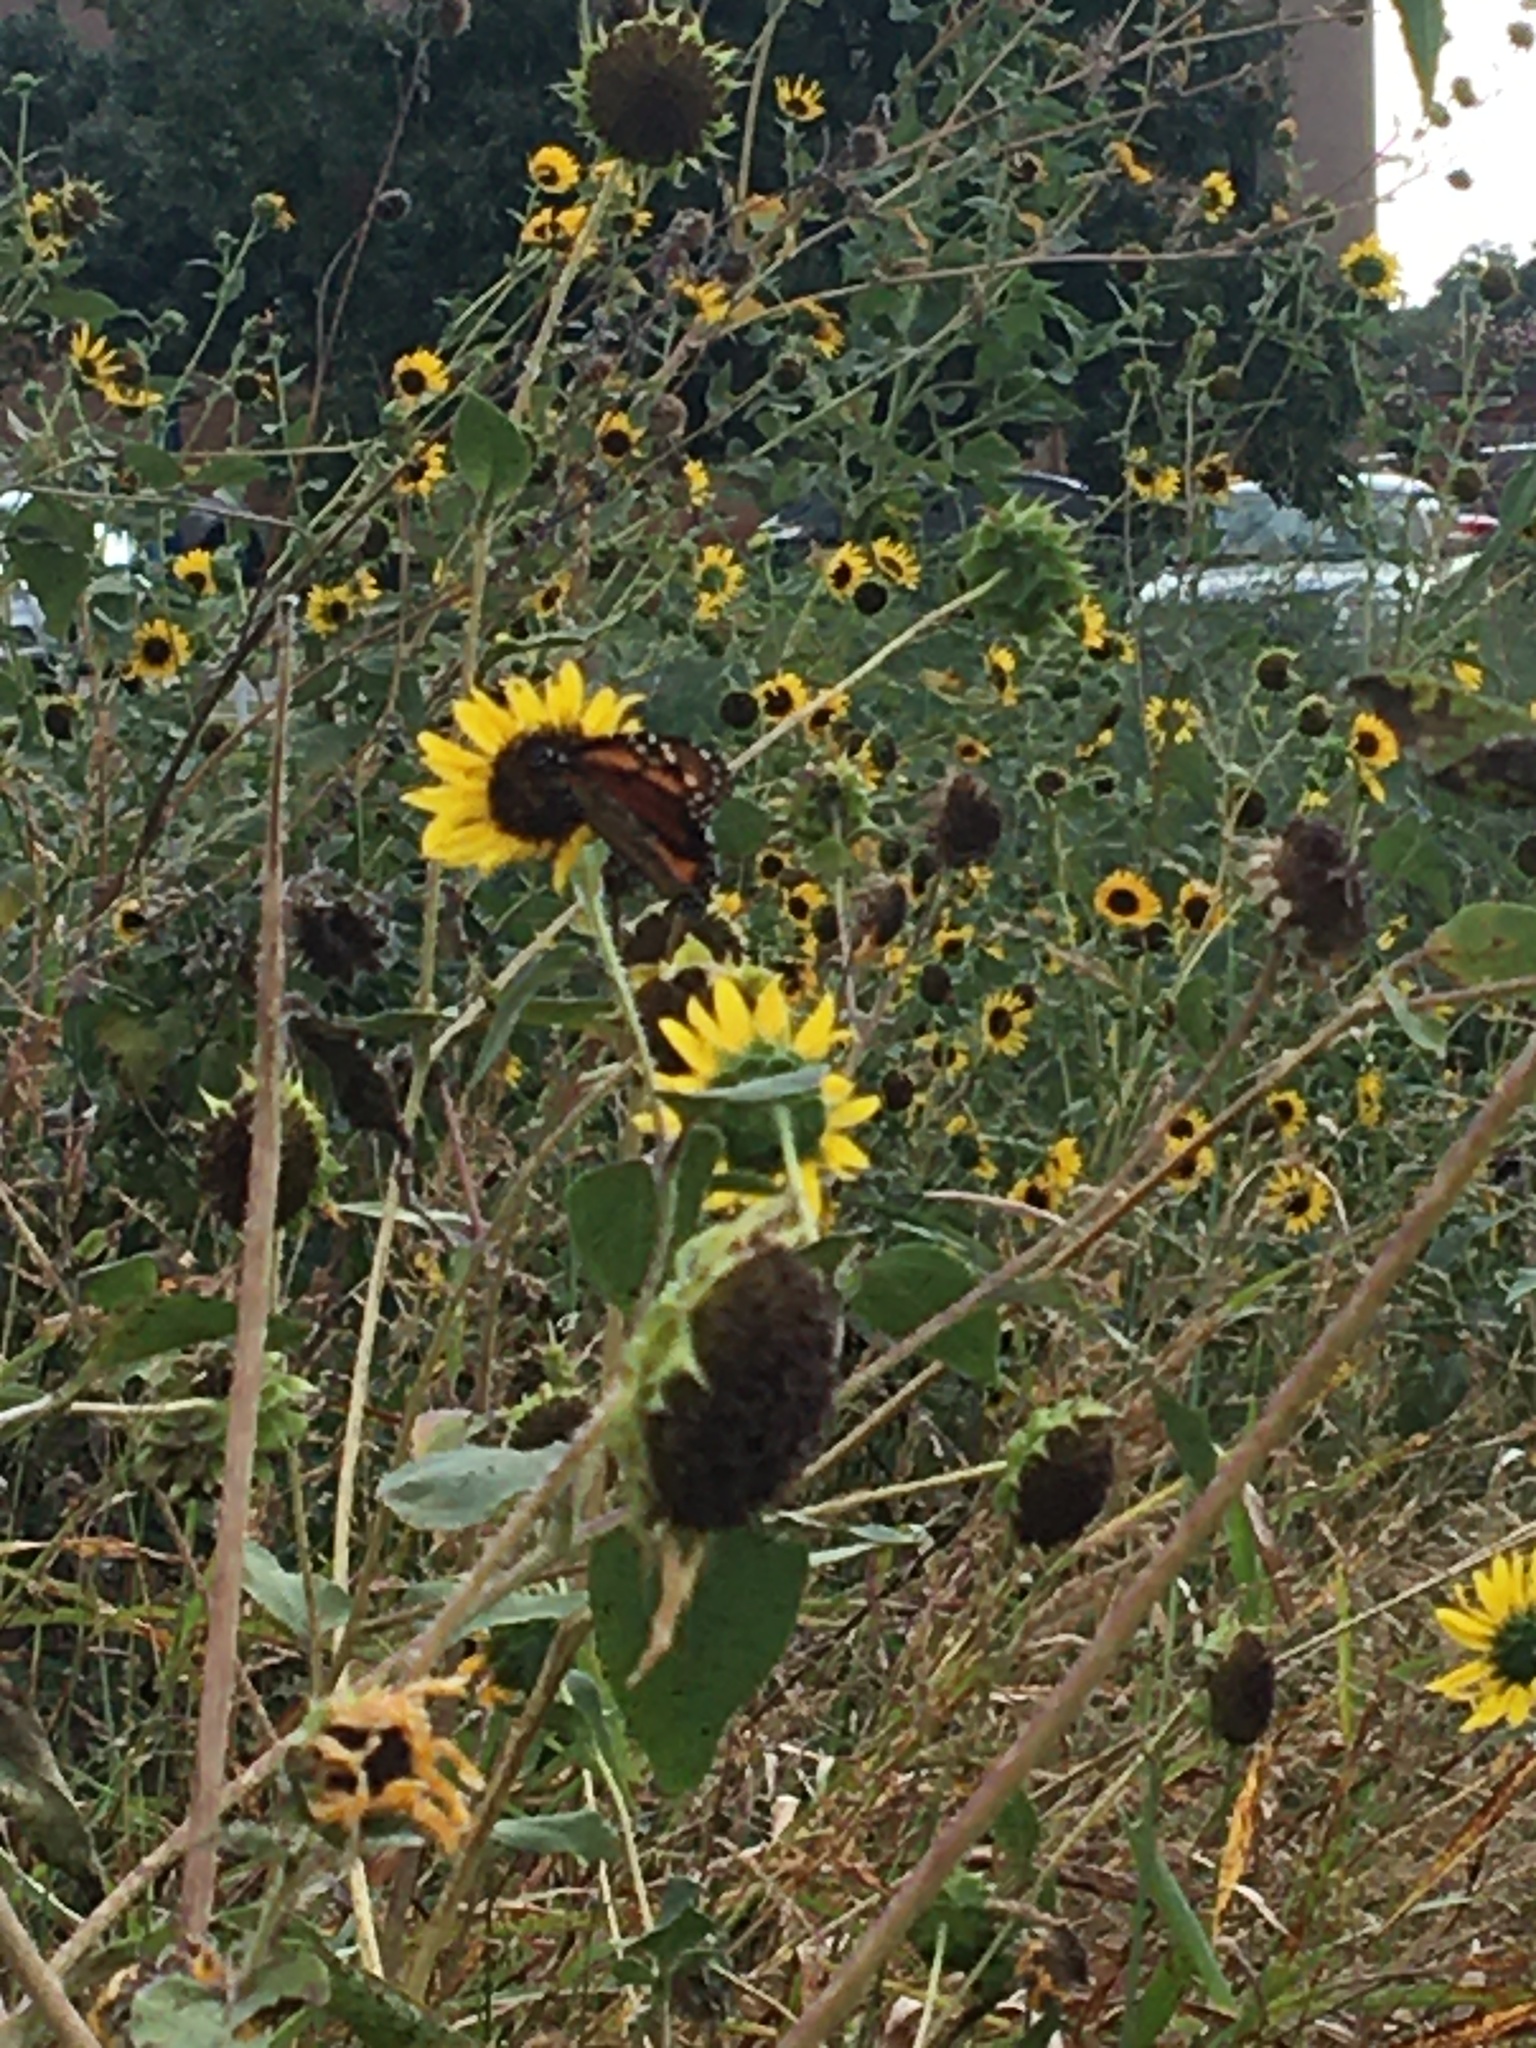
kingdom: Animalia
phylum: Arthropoda
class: Insecta
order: Lepidoptera
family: Nymphalidae
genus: Danaus
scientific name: Danaus plexippus
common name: Monarch
